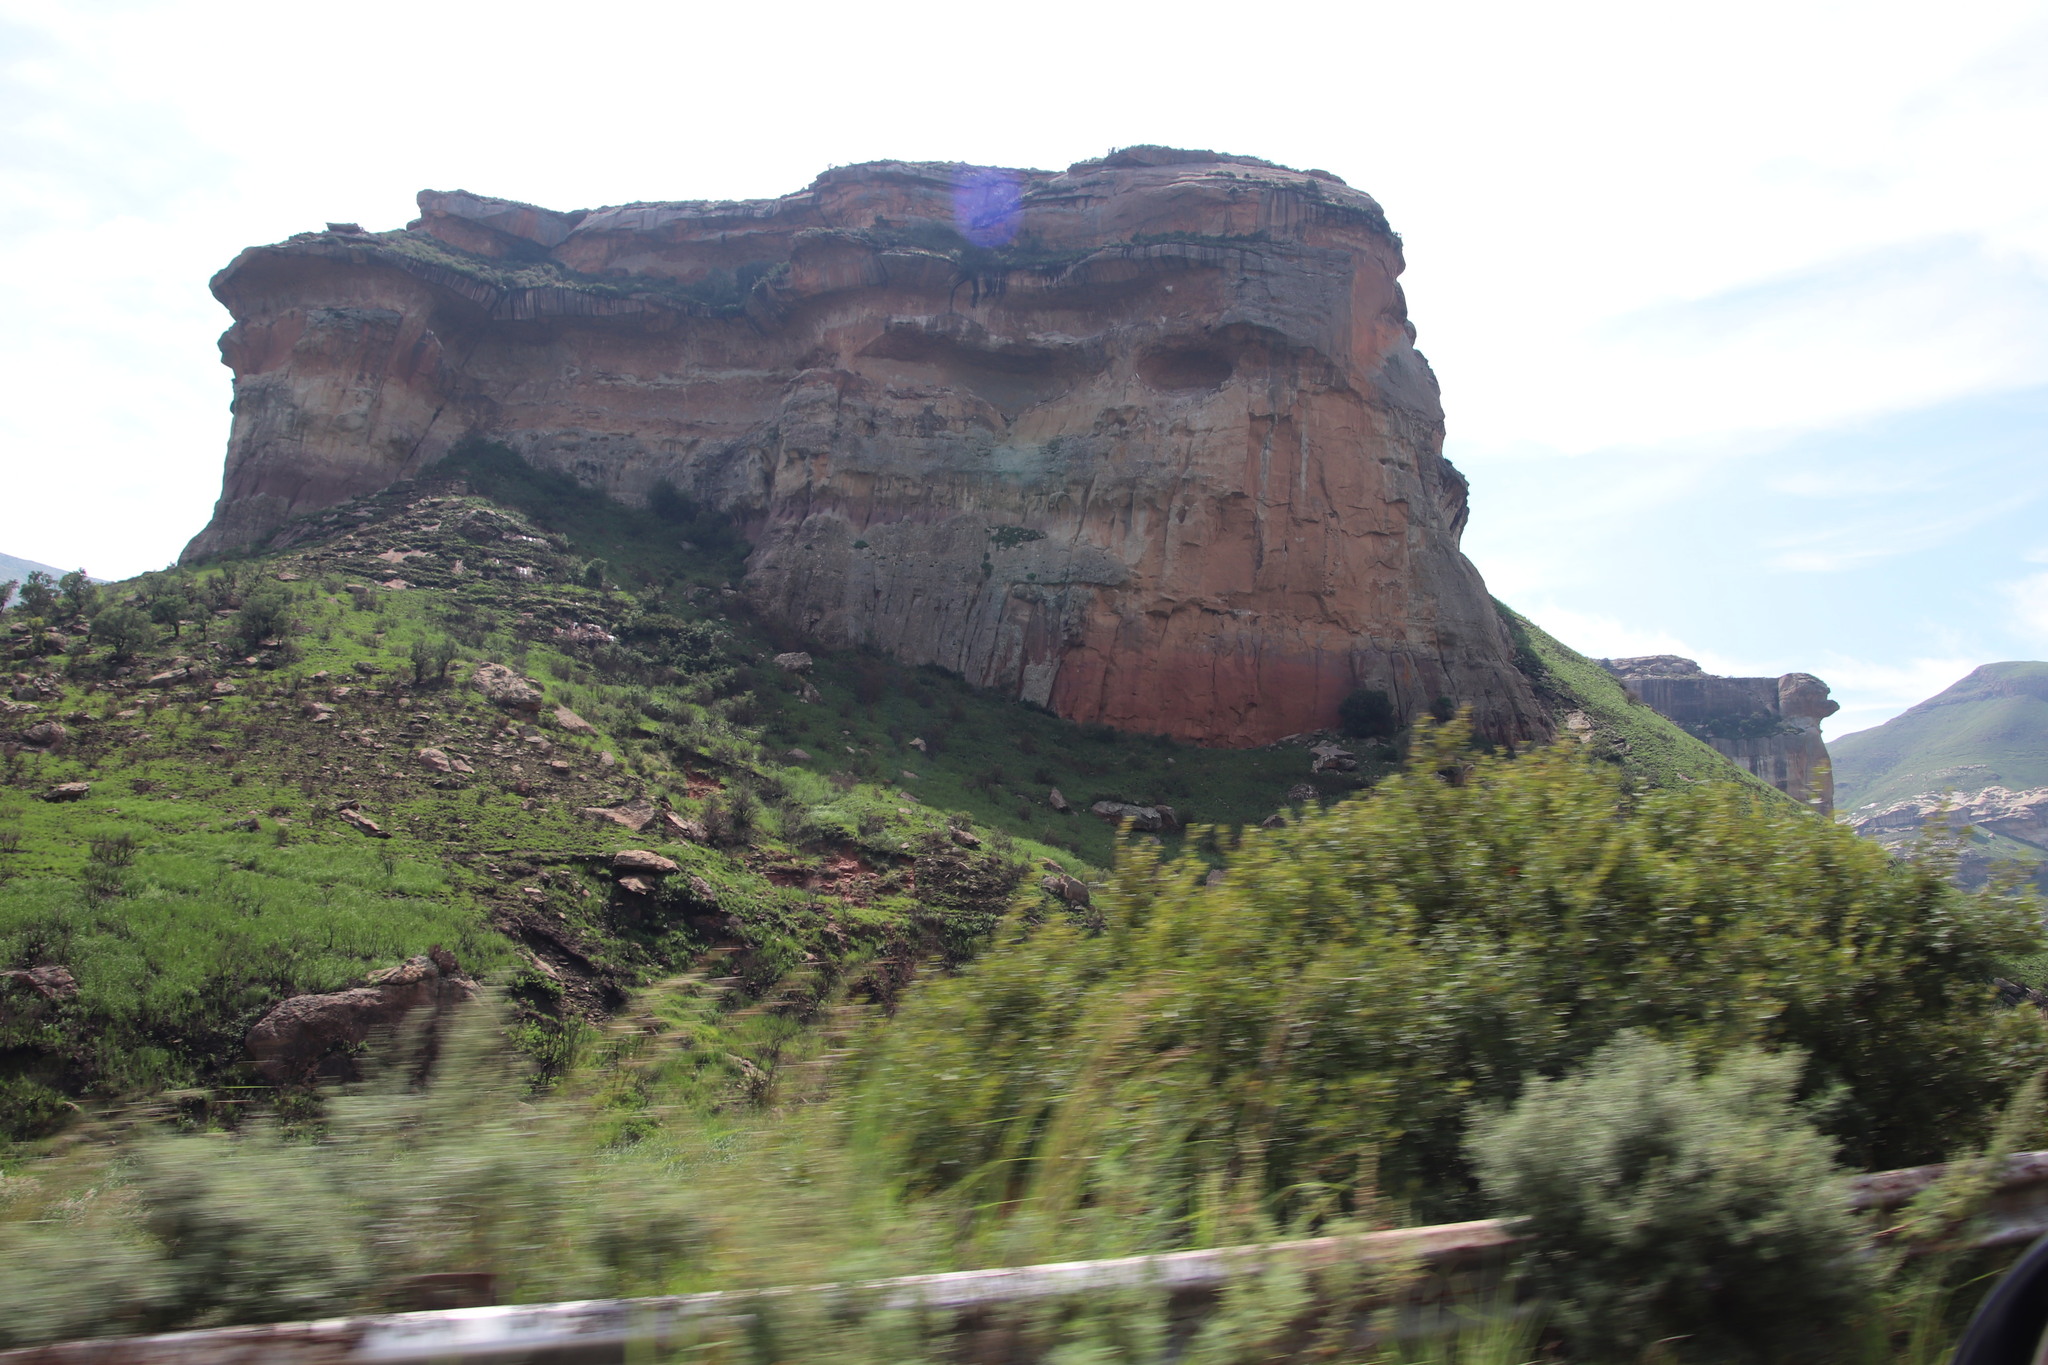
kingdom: Plantae
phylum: Tracheophyta
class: Magnoliopsida
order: Rosales
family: Rosaceae
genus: Leucosidea
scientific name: Leucosidea sericea
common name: Oldwood
